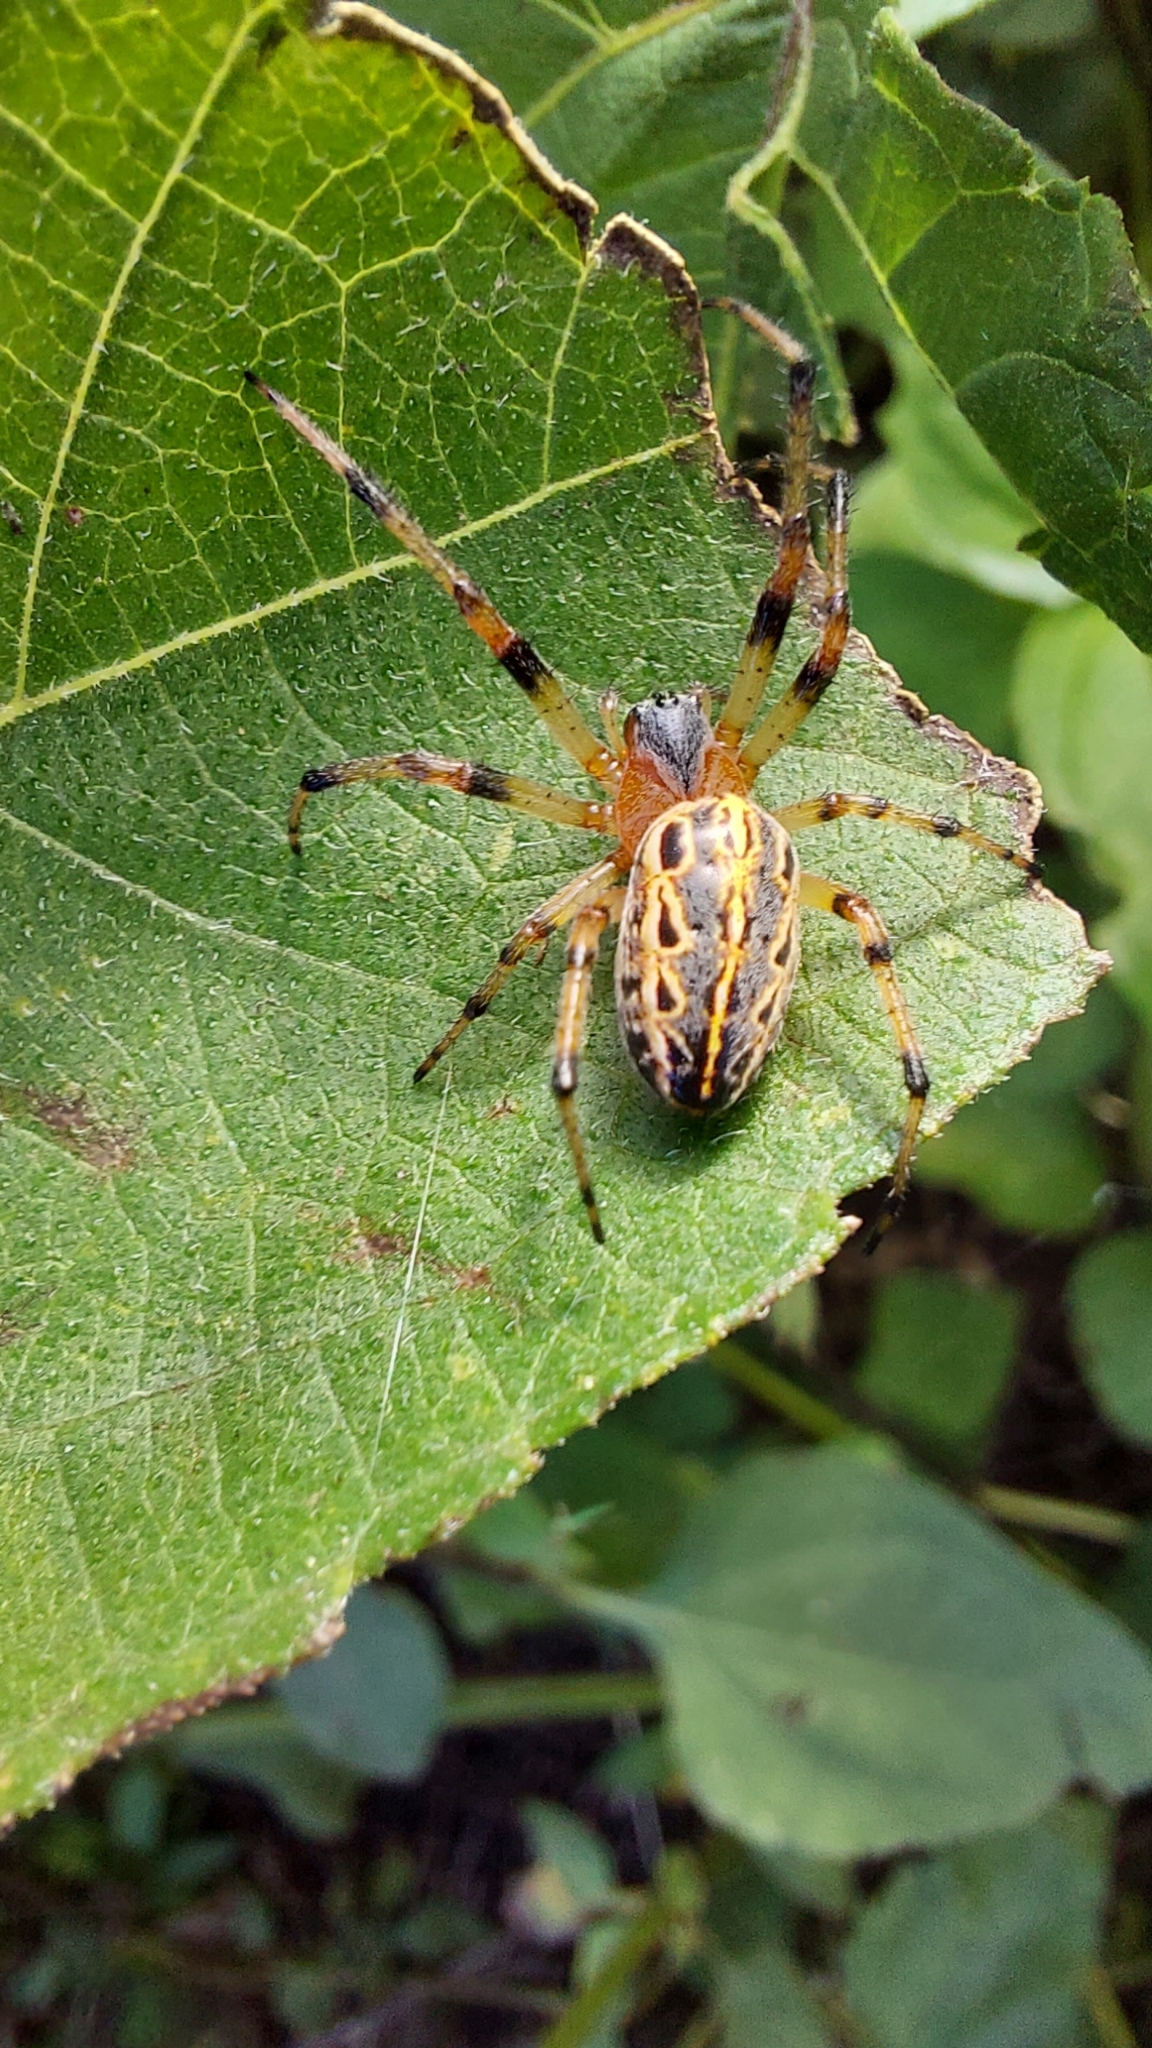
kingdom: Animalia
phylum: Arthropoda
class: Arachnida
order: Araneae
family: Araneidae
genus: Alpaida
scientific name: Alpaida veniliae
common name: Orb weavers
